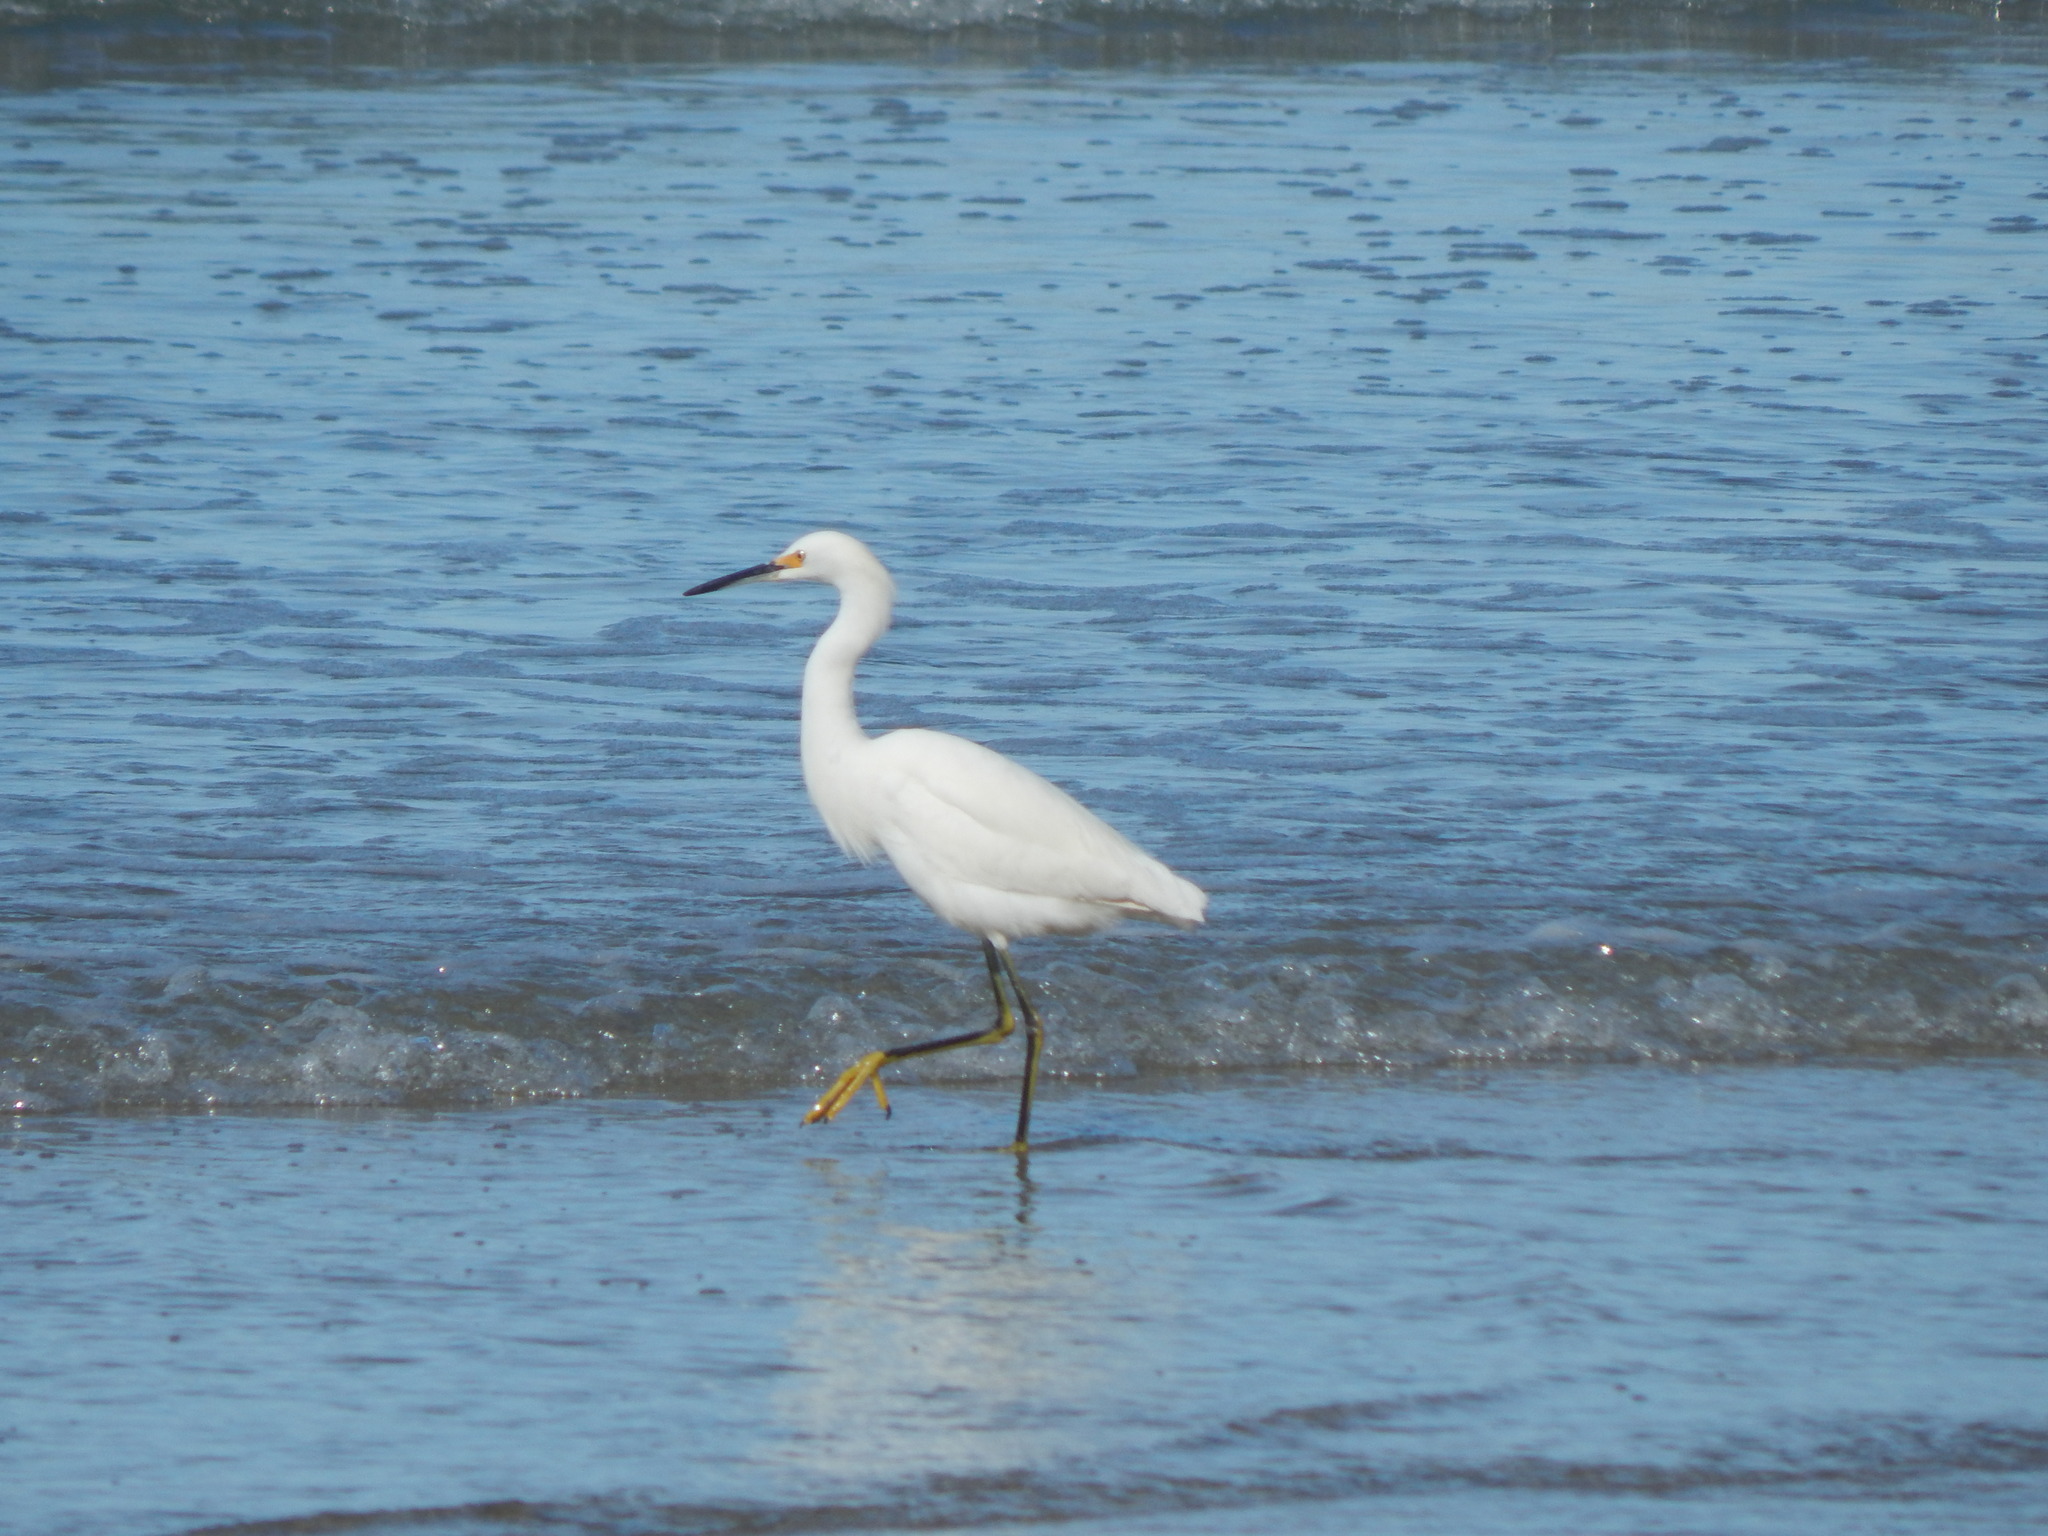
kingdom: Animalia
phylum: Chordata
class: Aves
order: Pelecaniformes
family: Ardeidae
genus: Egretta
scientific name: Egretta thula
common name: Snowy egret
